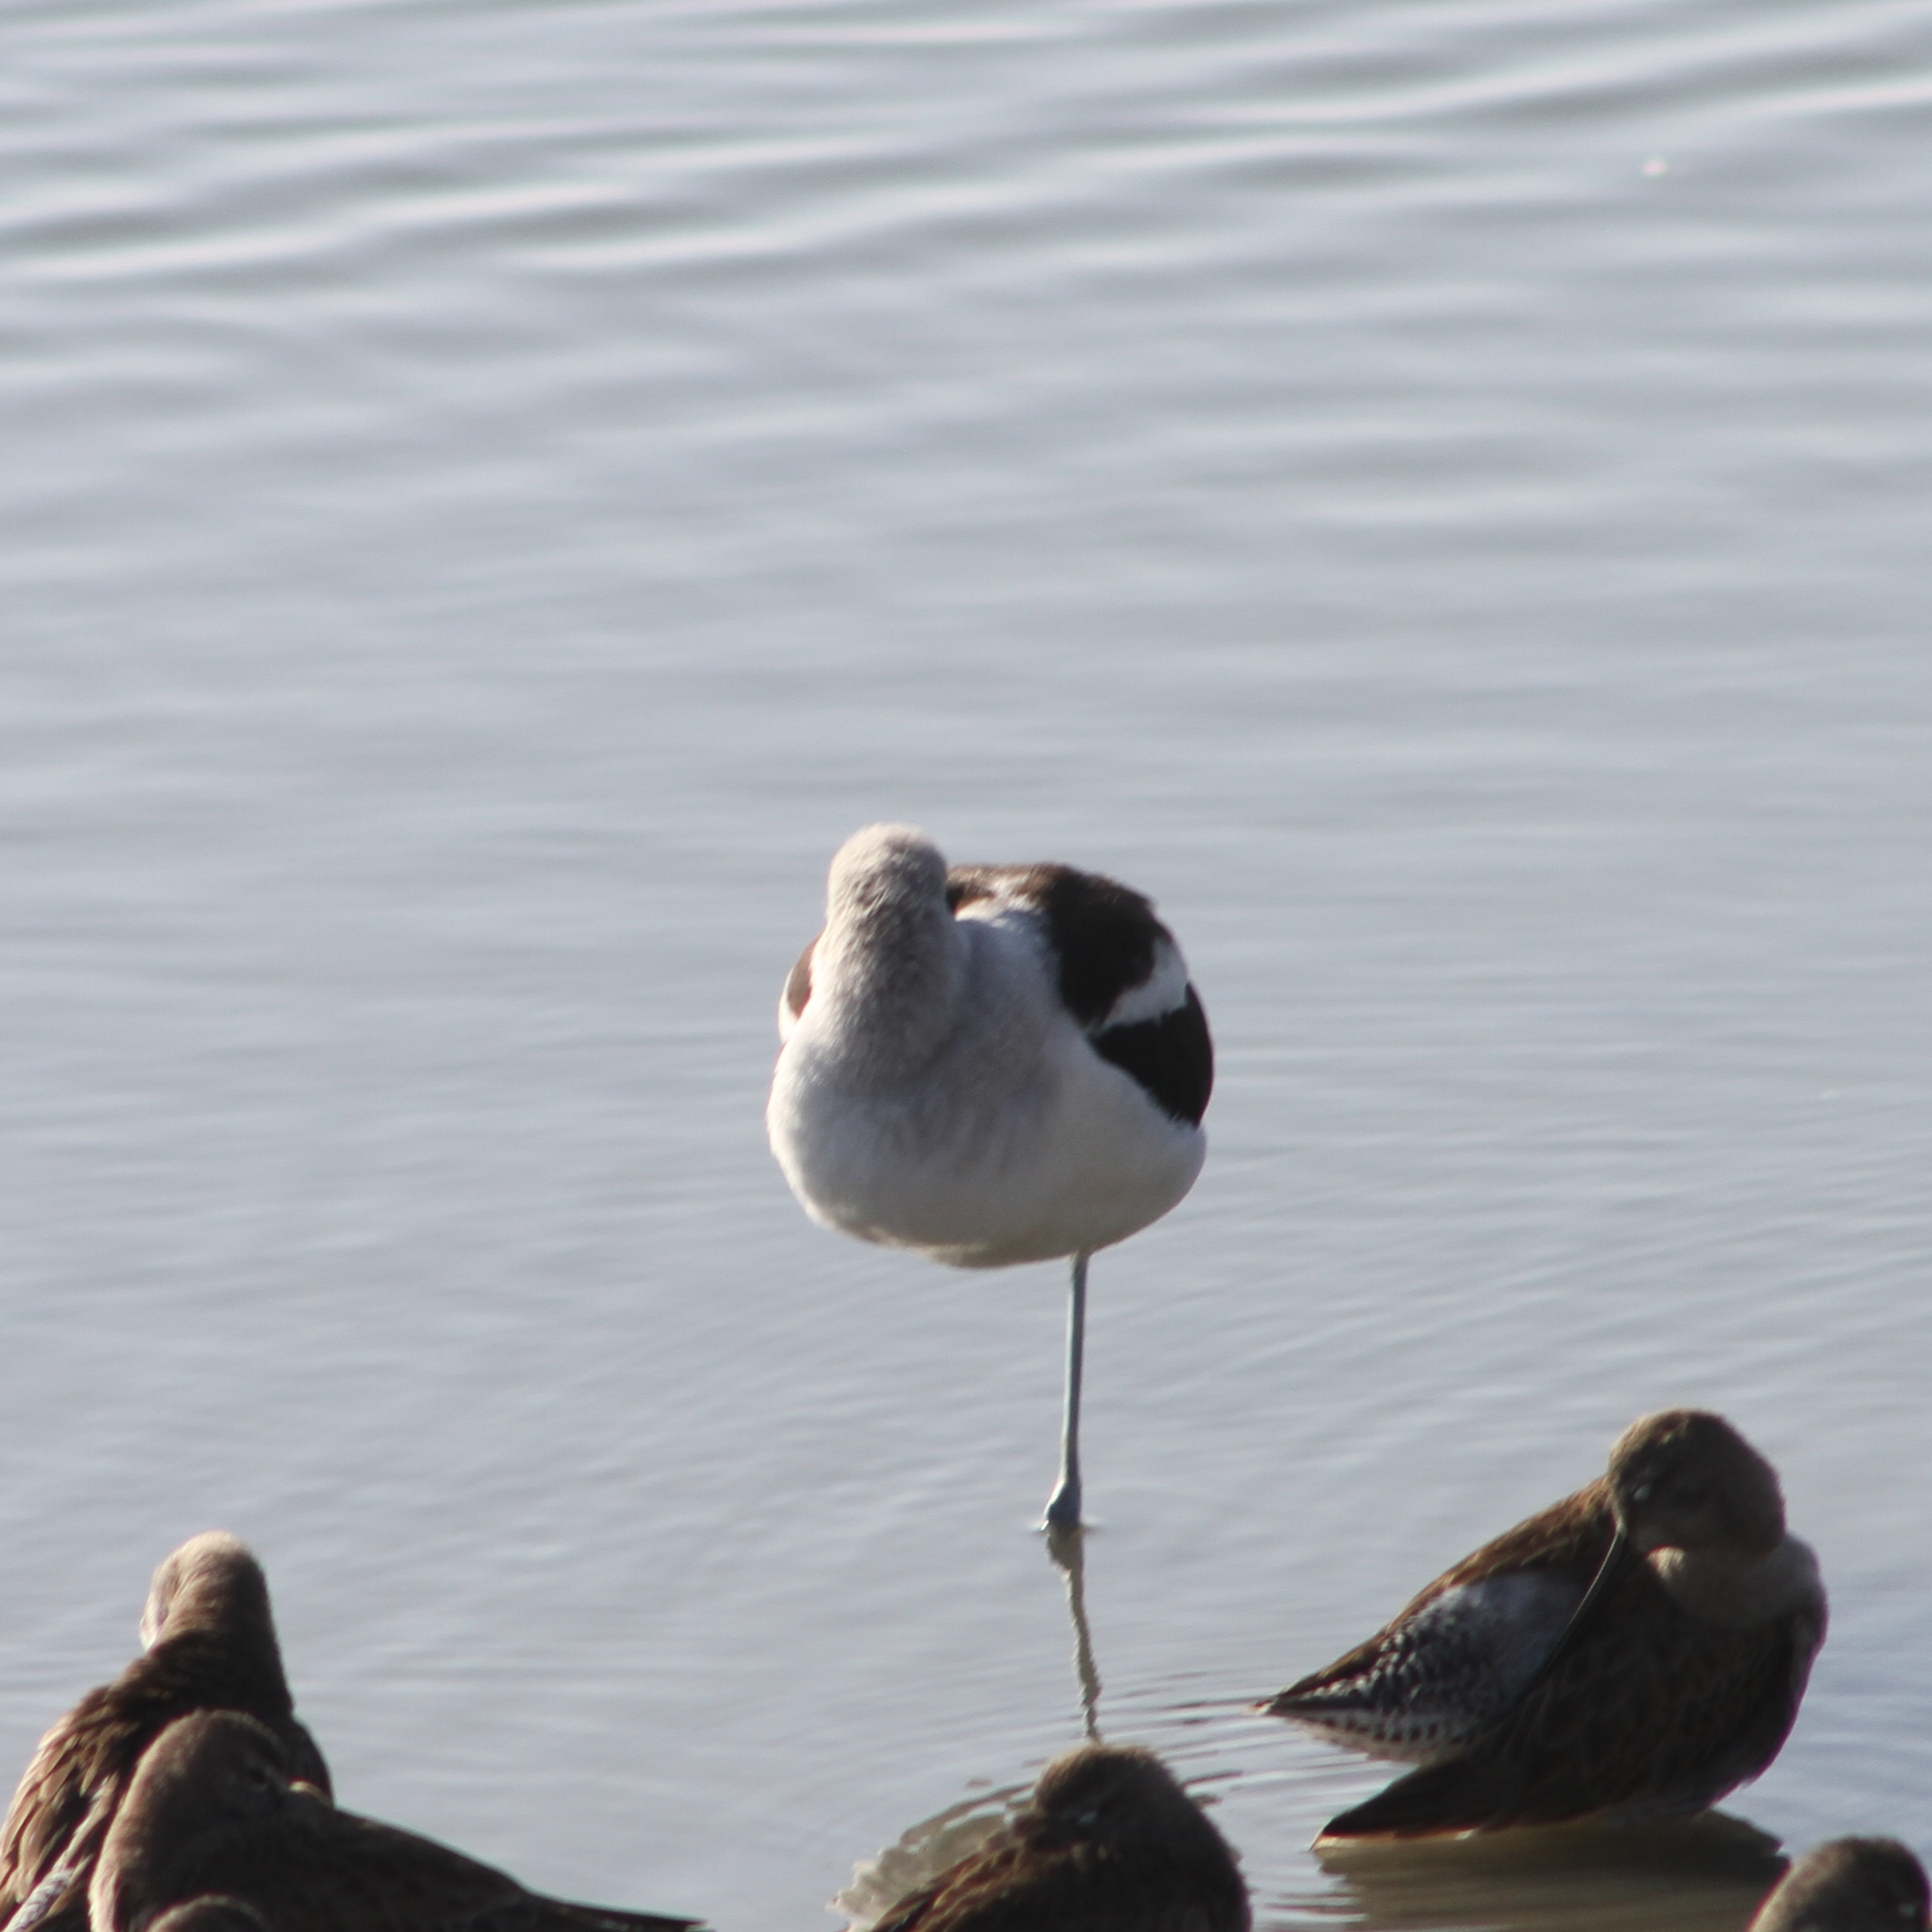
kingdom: Animalia
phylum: Chordata
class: Aves
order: Charadriiformes
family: Recurvirostridae
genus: Recurvirostra
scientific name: Recurvirostra americana
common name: American avocet
